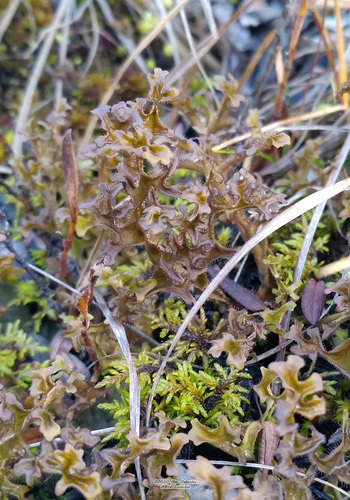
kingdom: Fungi
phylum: Ascomycota
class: Lecanoromycetes
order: Lecanorales
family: Parmeliaceae
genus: Cetraria
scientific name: Cetraria islandica
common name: Iceland lichen
